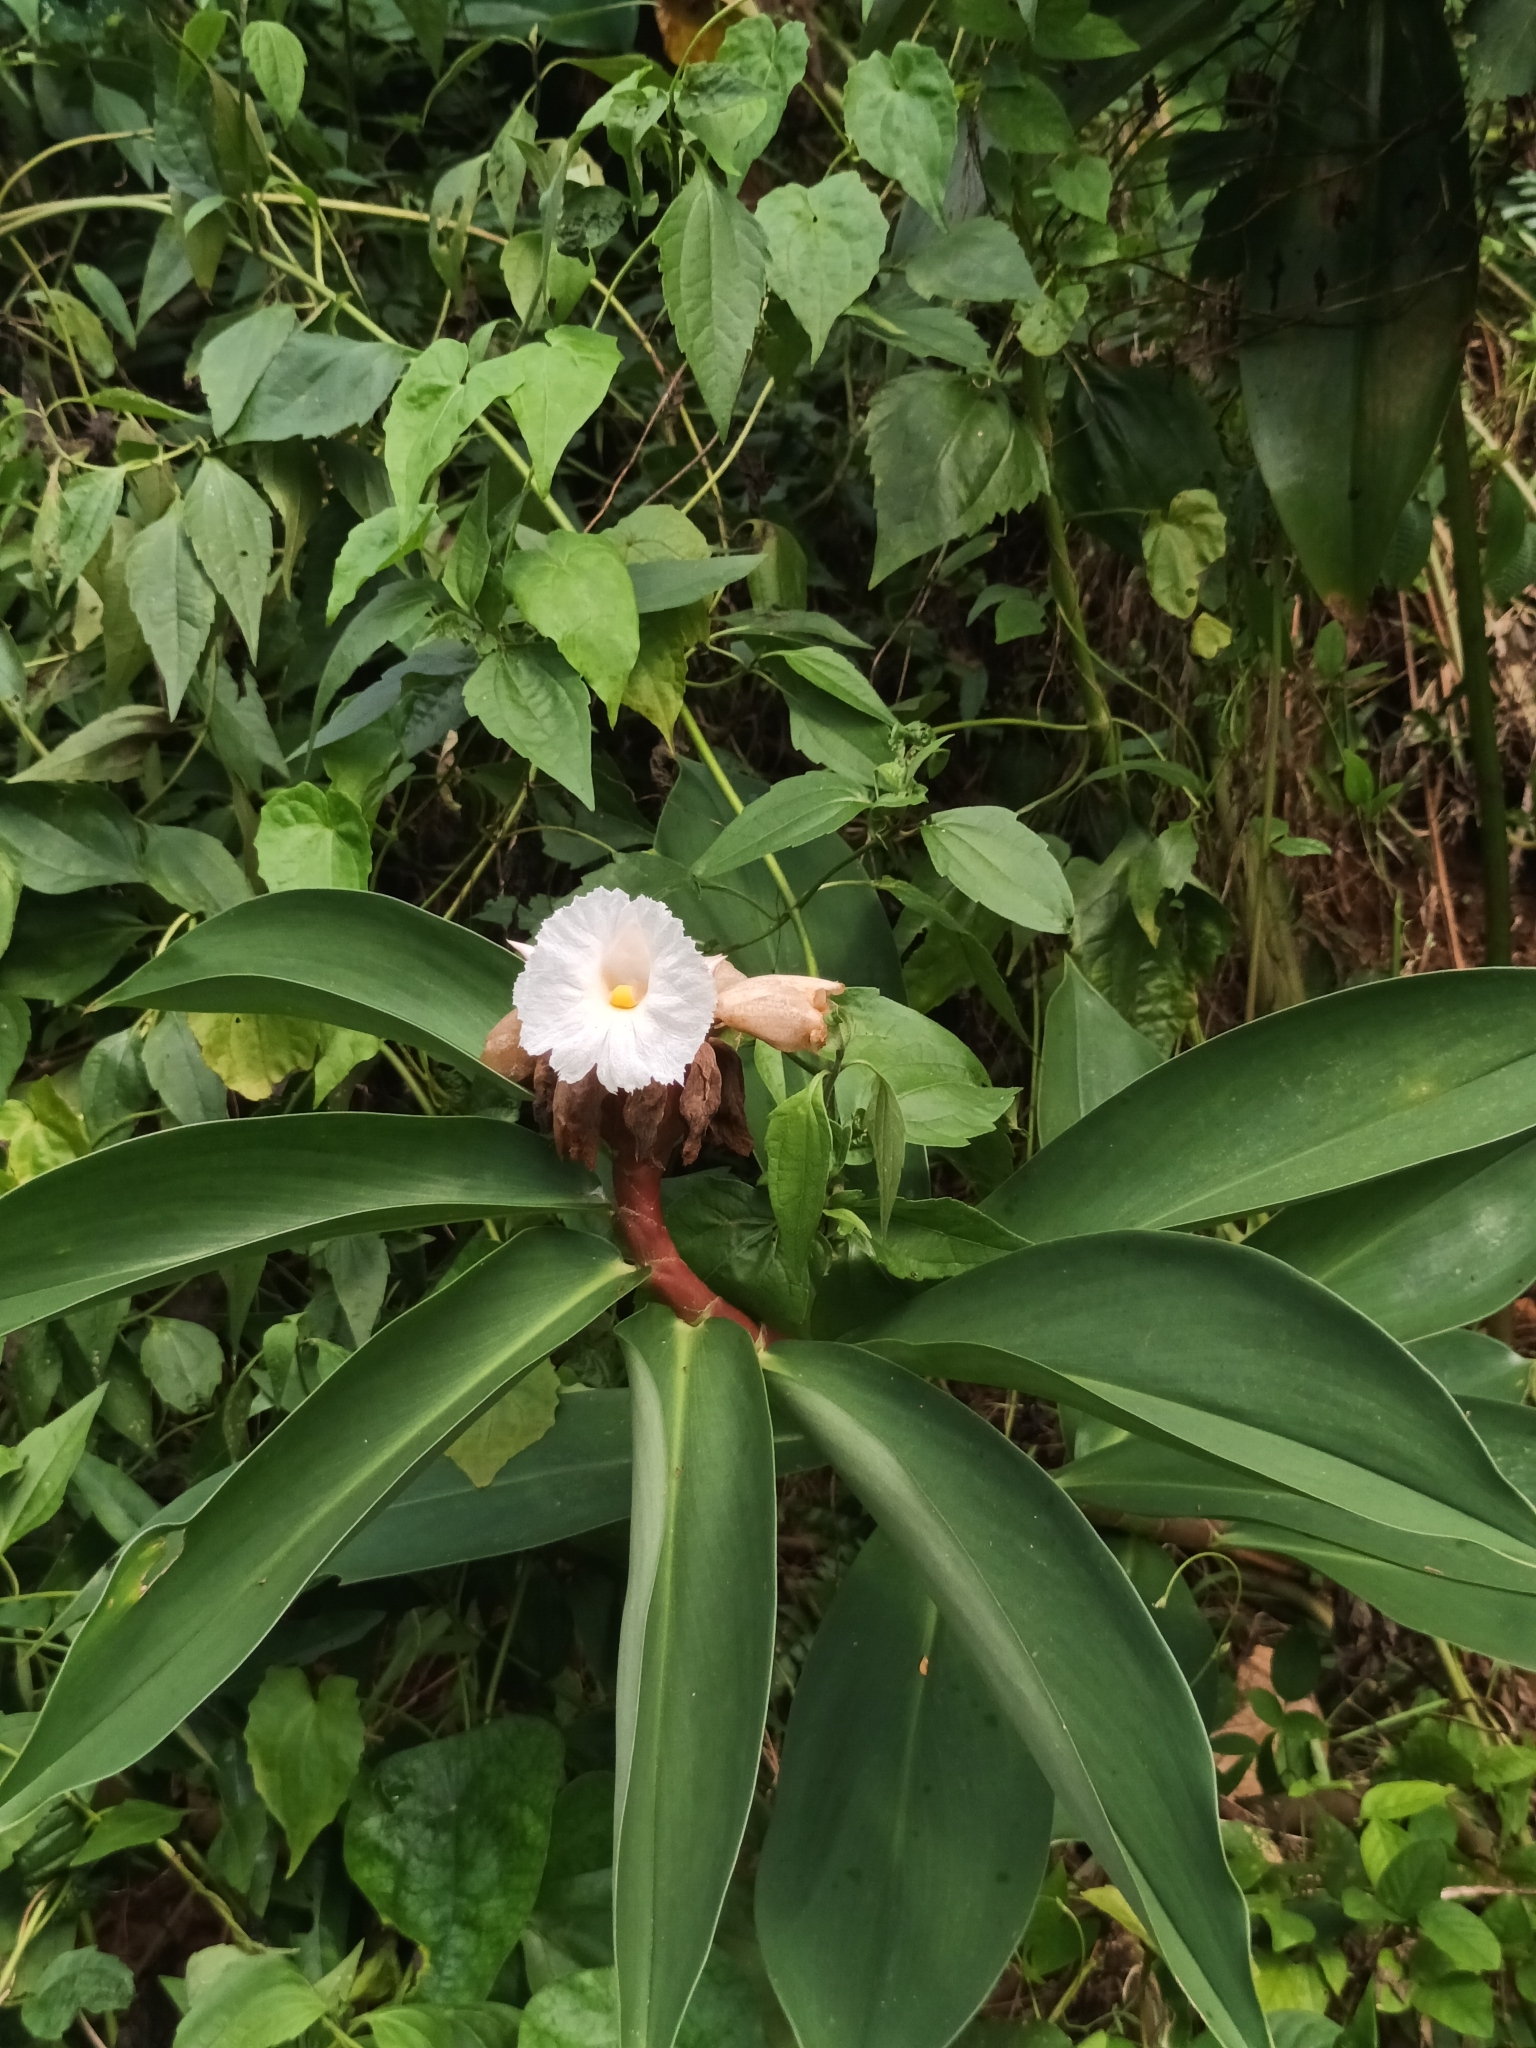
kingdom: Plantae
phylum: Tracheophyta
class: Liliopsida
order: Zingiberales
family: Costaceae
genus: Hellenia
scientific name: Hellenia speciosa
